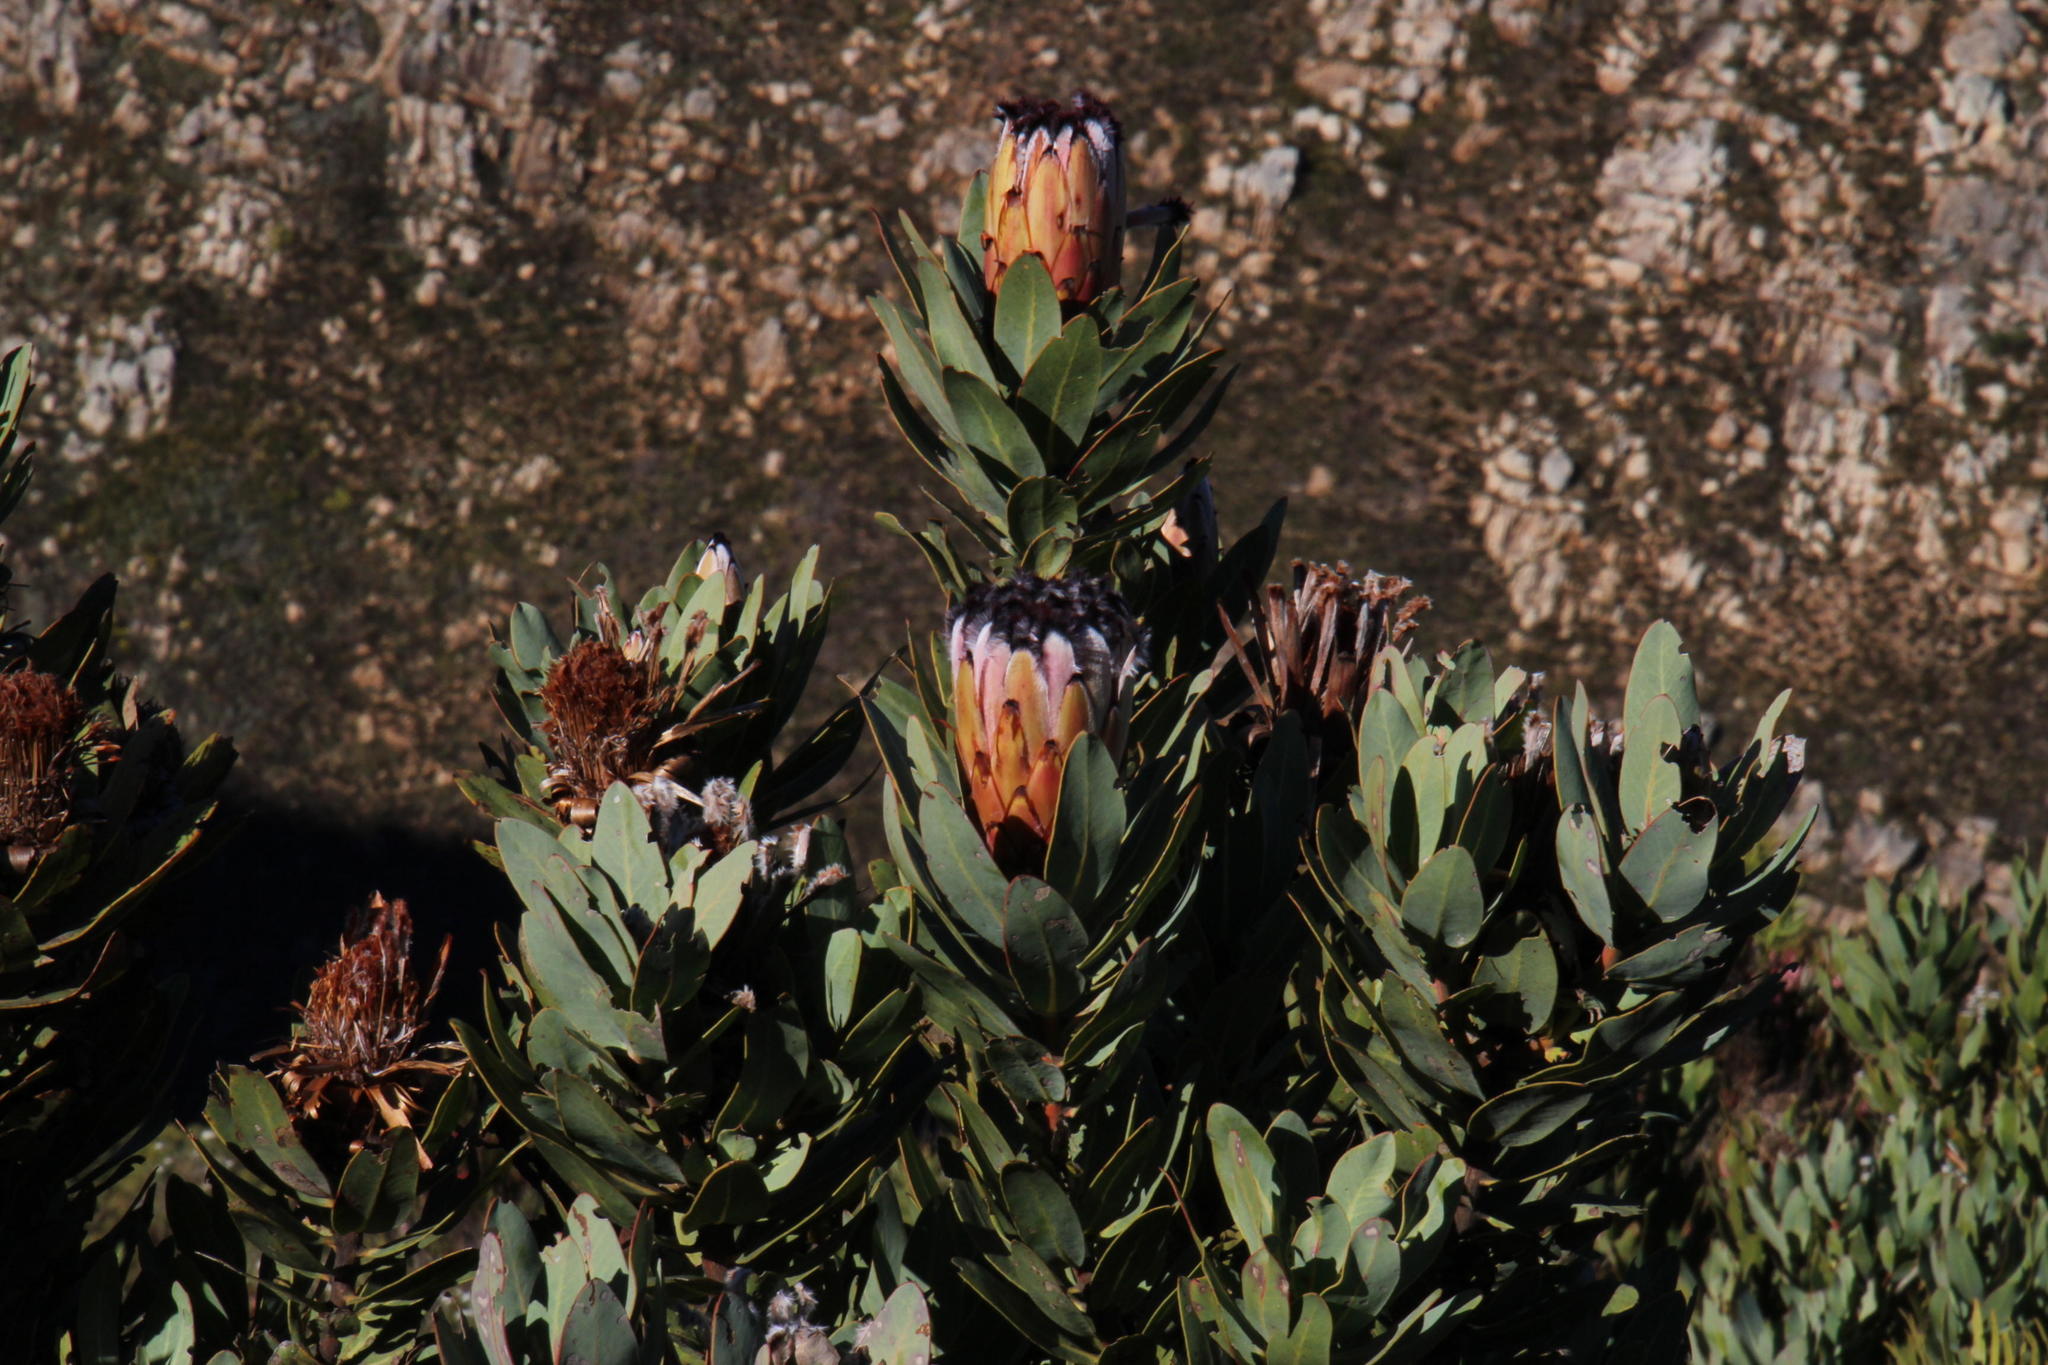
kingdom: Plantae
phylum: Tracheophyta
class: Magnoliopsida
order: Proteales
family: Proteaceae
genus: Protea
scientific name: Protea laurifolia
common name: Grey-leaf sugarbsh
